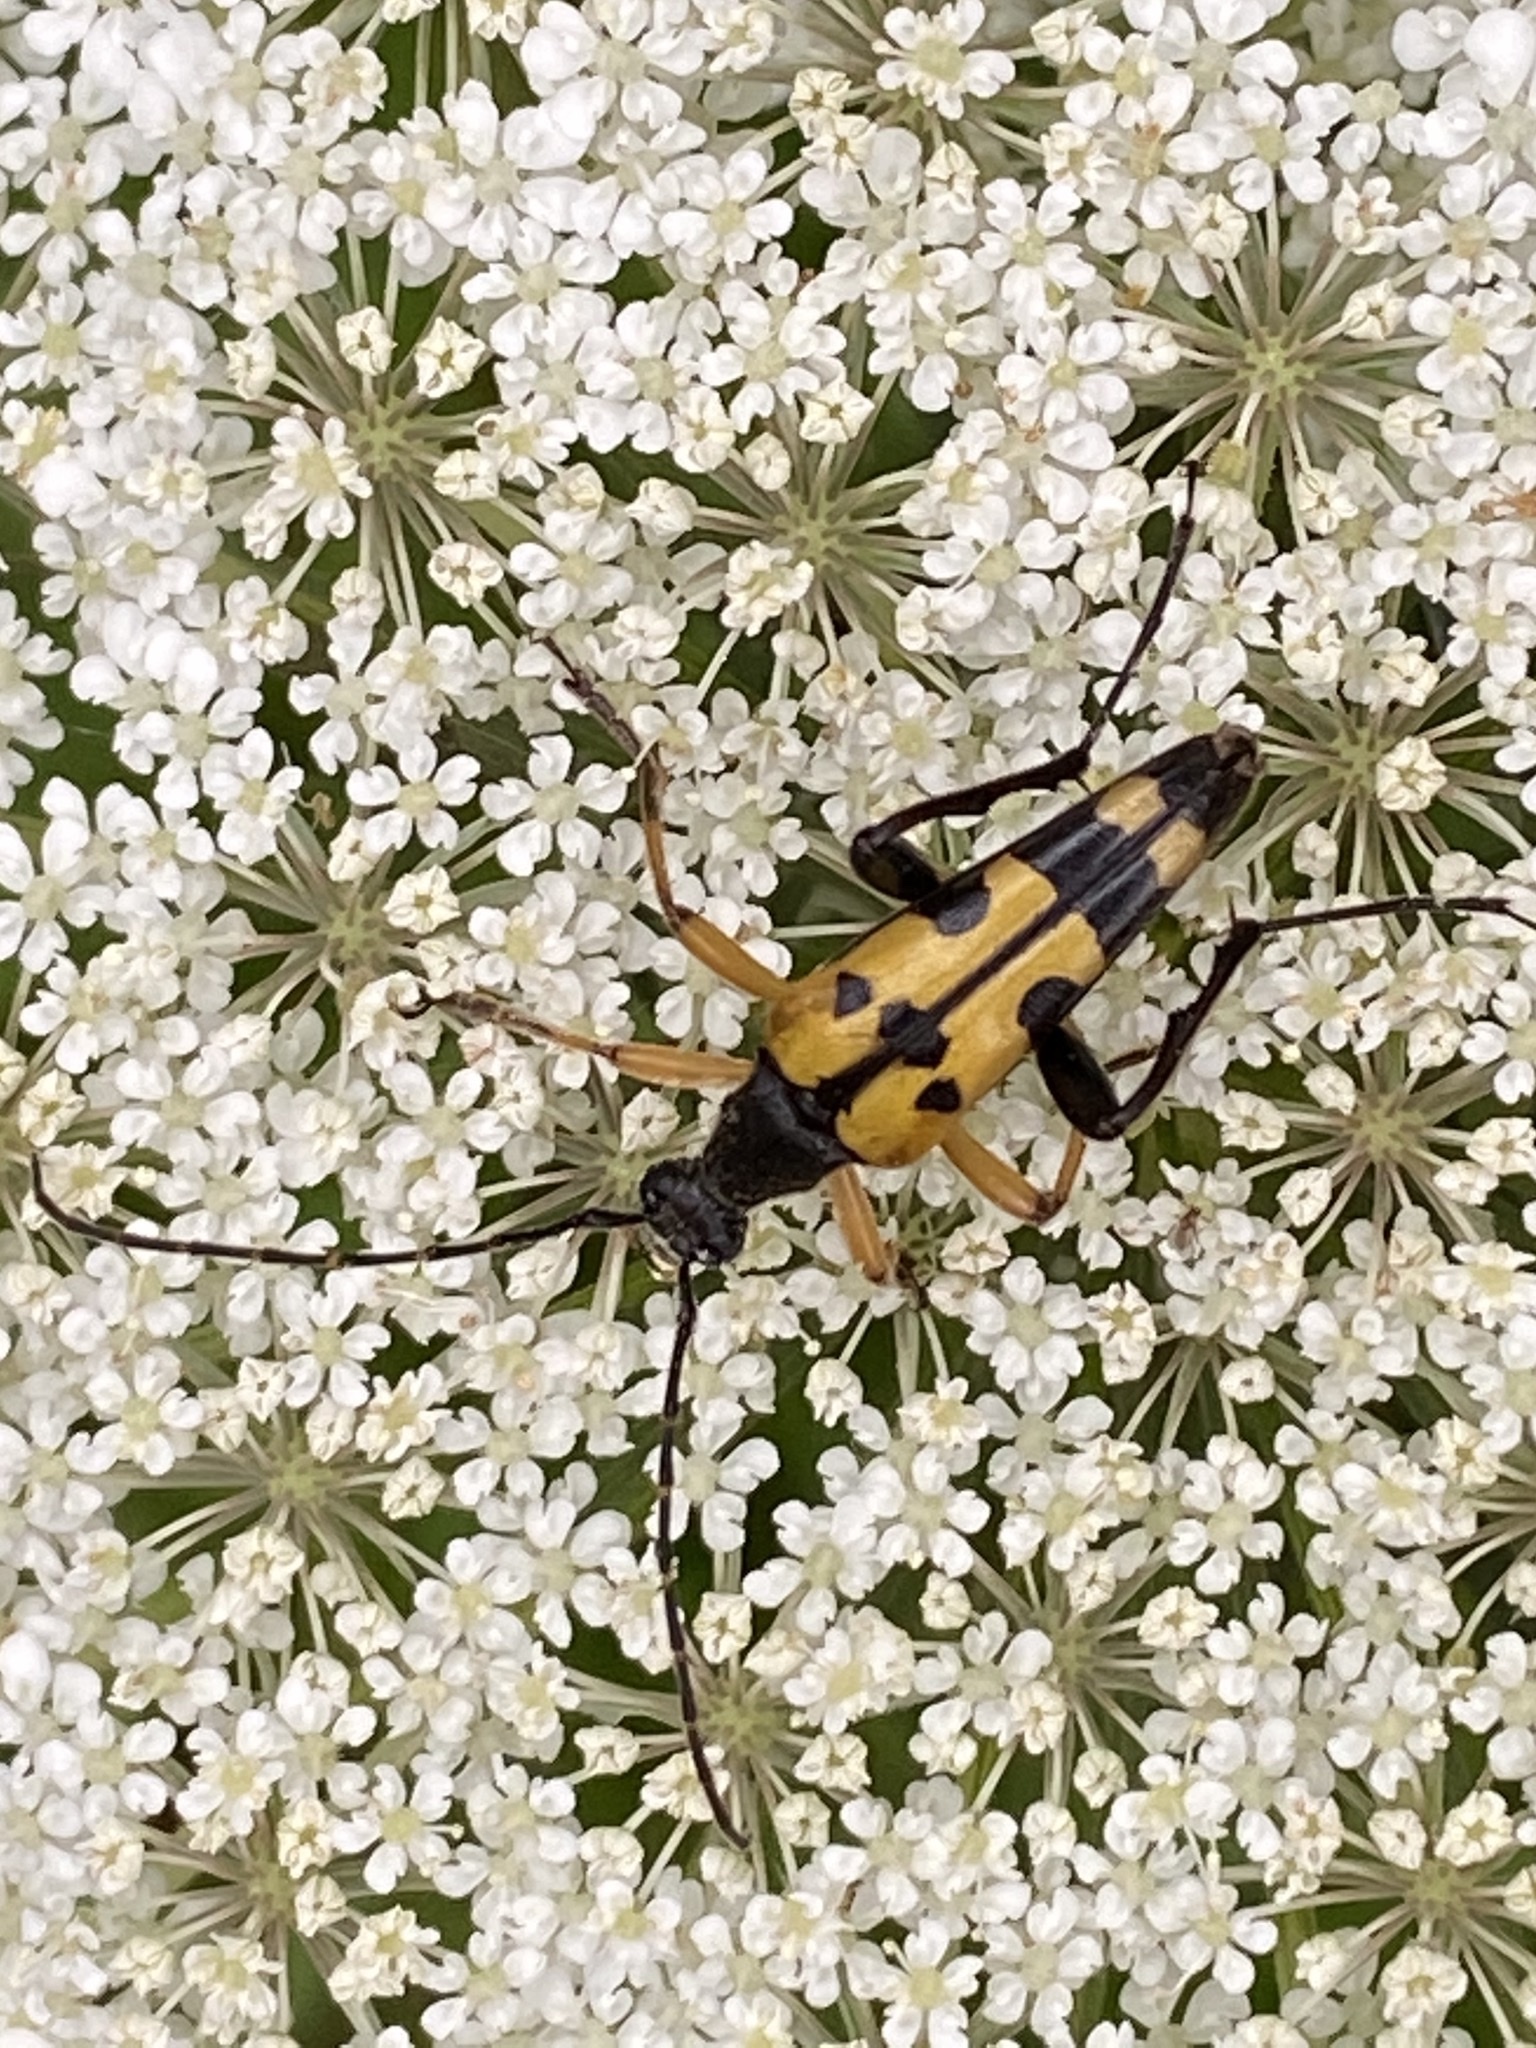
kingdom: Animalia
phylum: Arthropoda
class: Insecta
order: Coleoptera
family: Cerambycidae
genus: Rutpela
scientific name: Rutpela maculata
